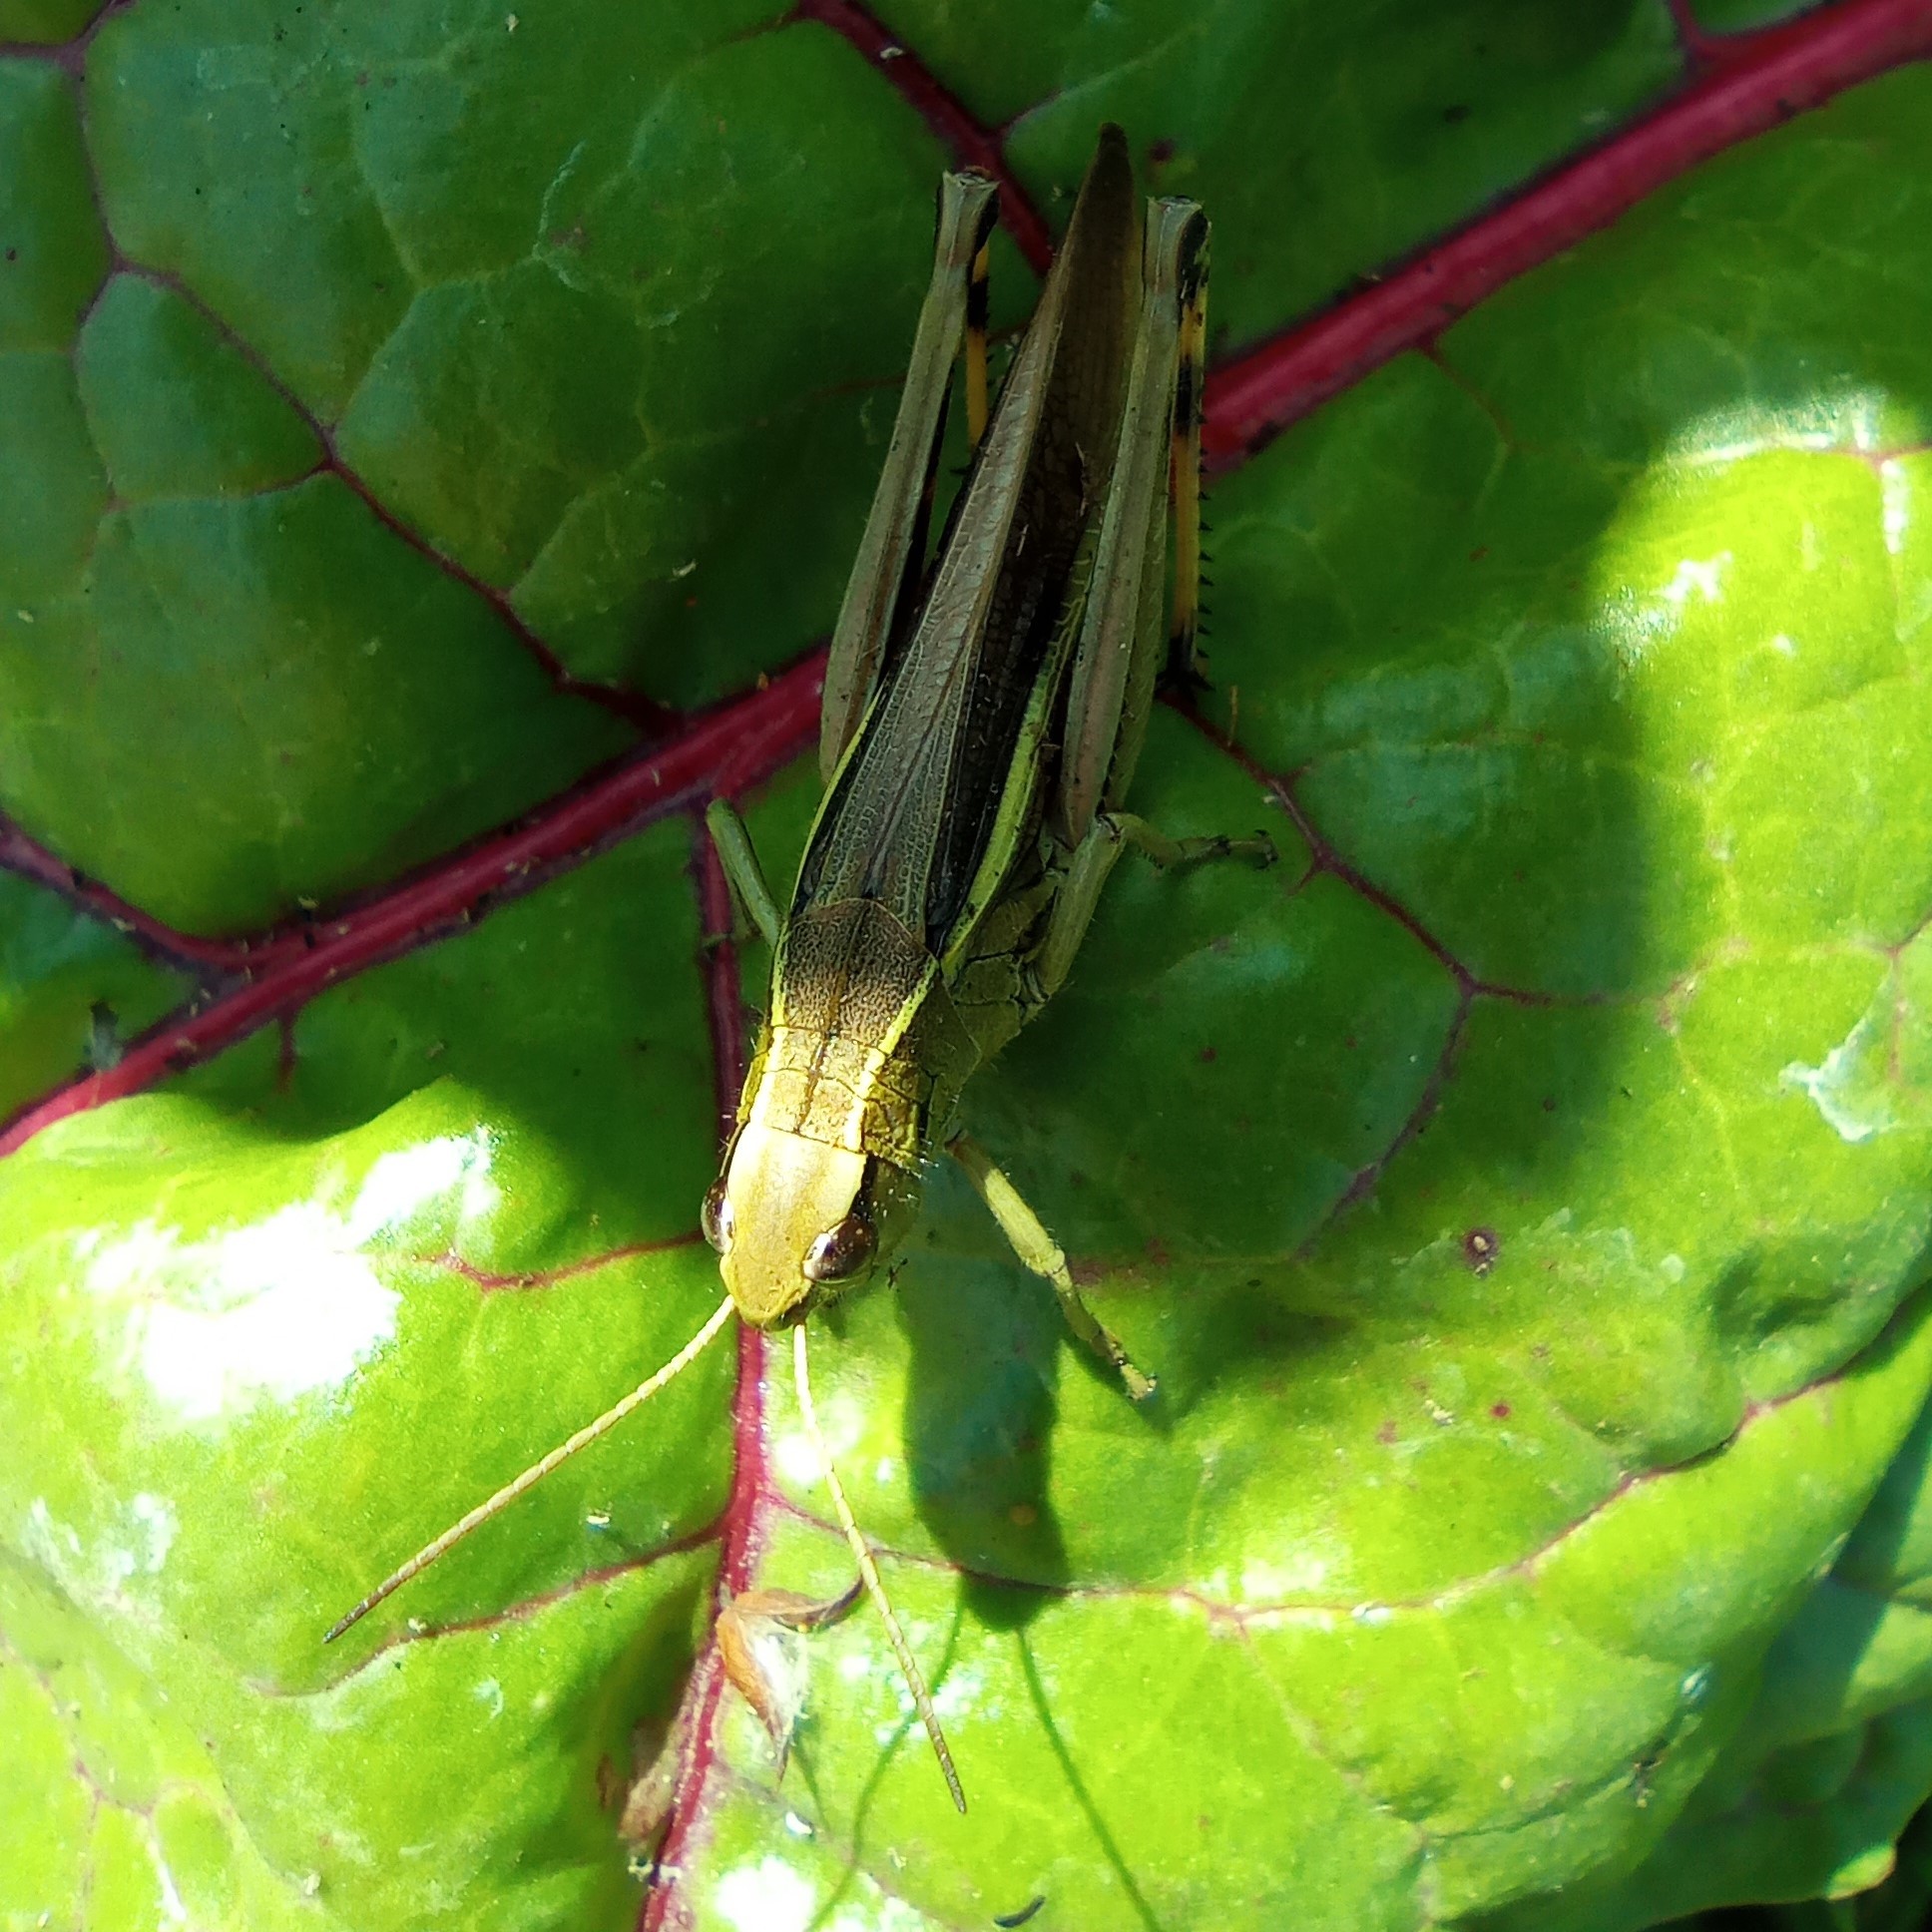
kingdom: Animalia
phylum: Arthropoda
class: Insecta
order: Orthoptera
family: Acrididae
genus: Stethophyma
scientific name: Stethophyma grossum
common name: Large marsh grasshopper
